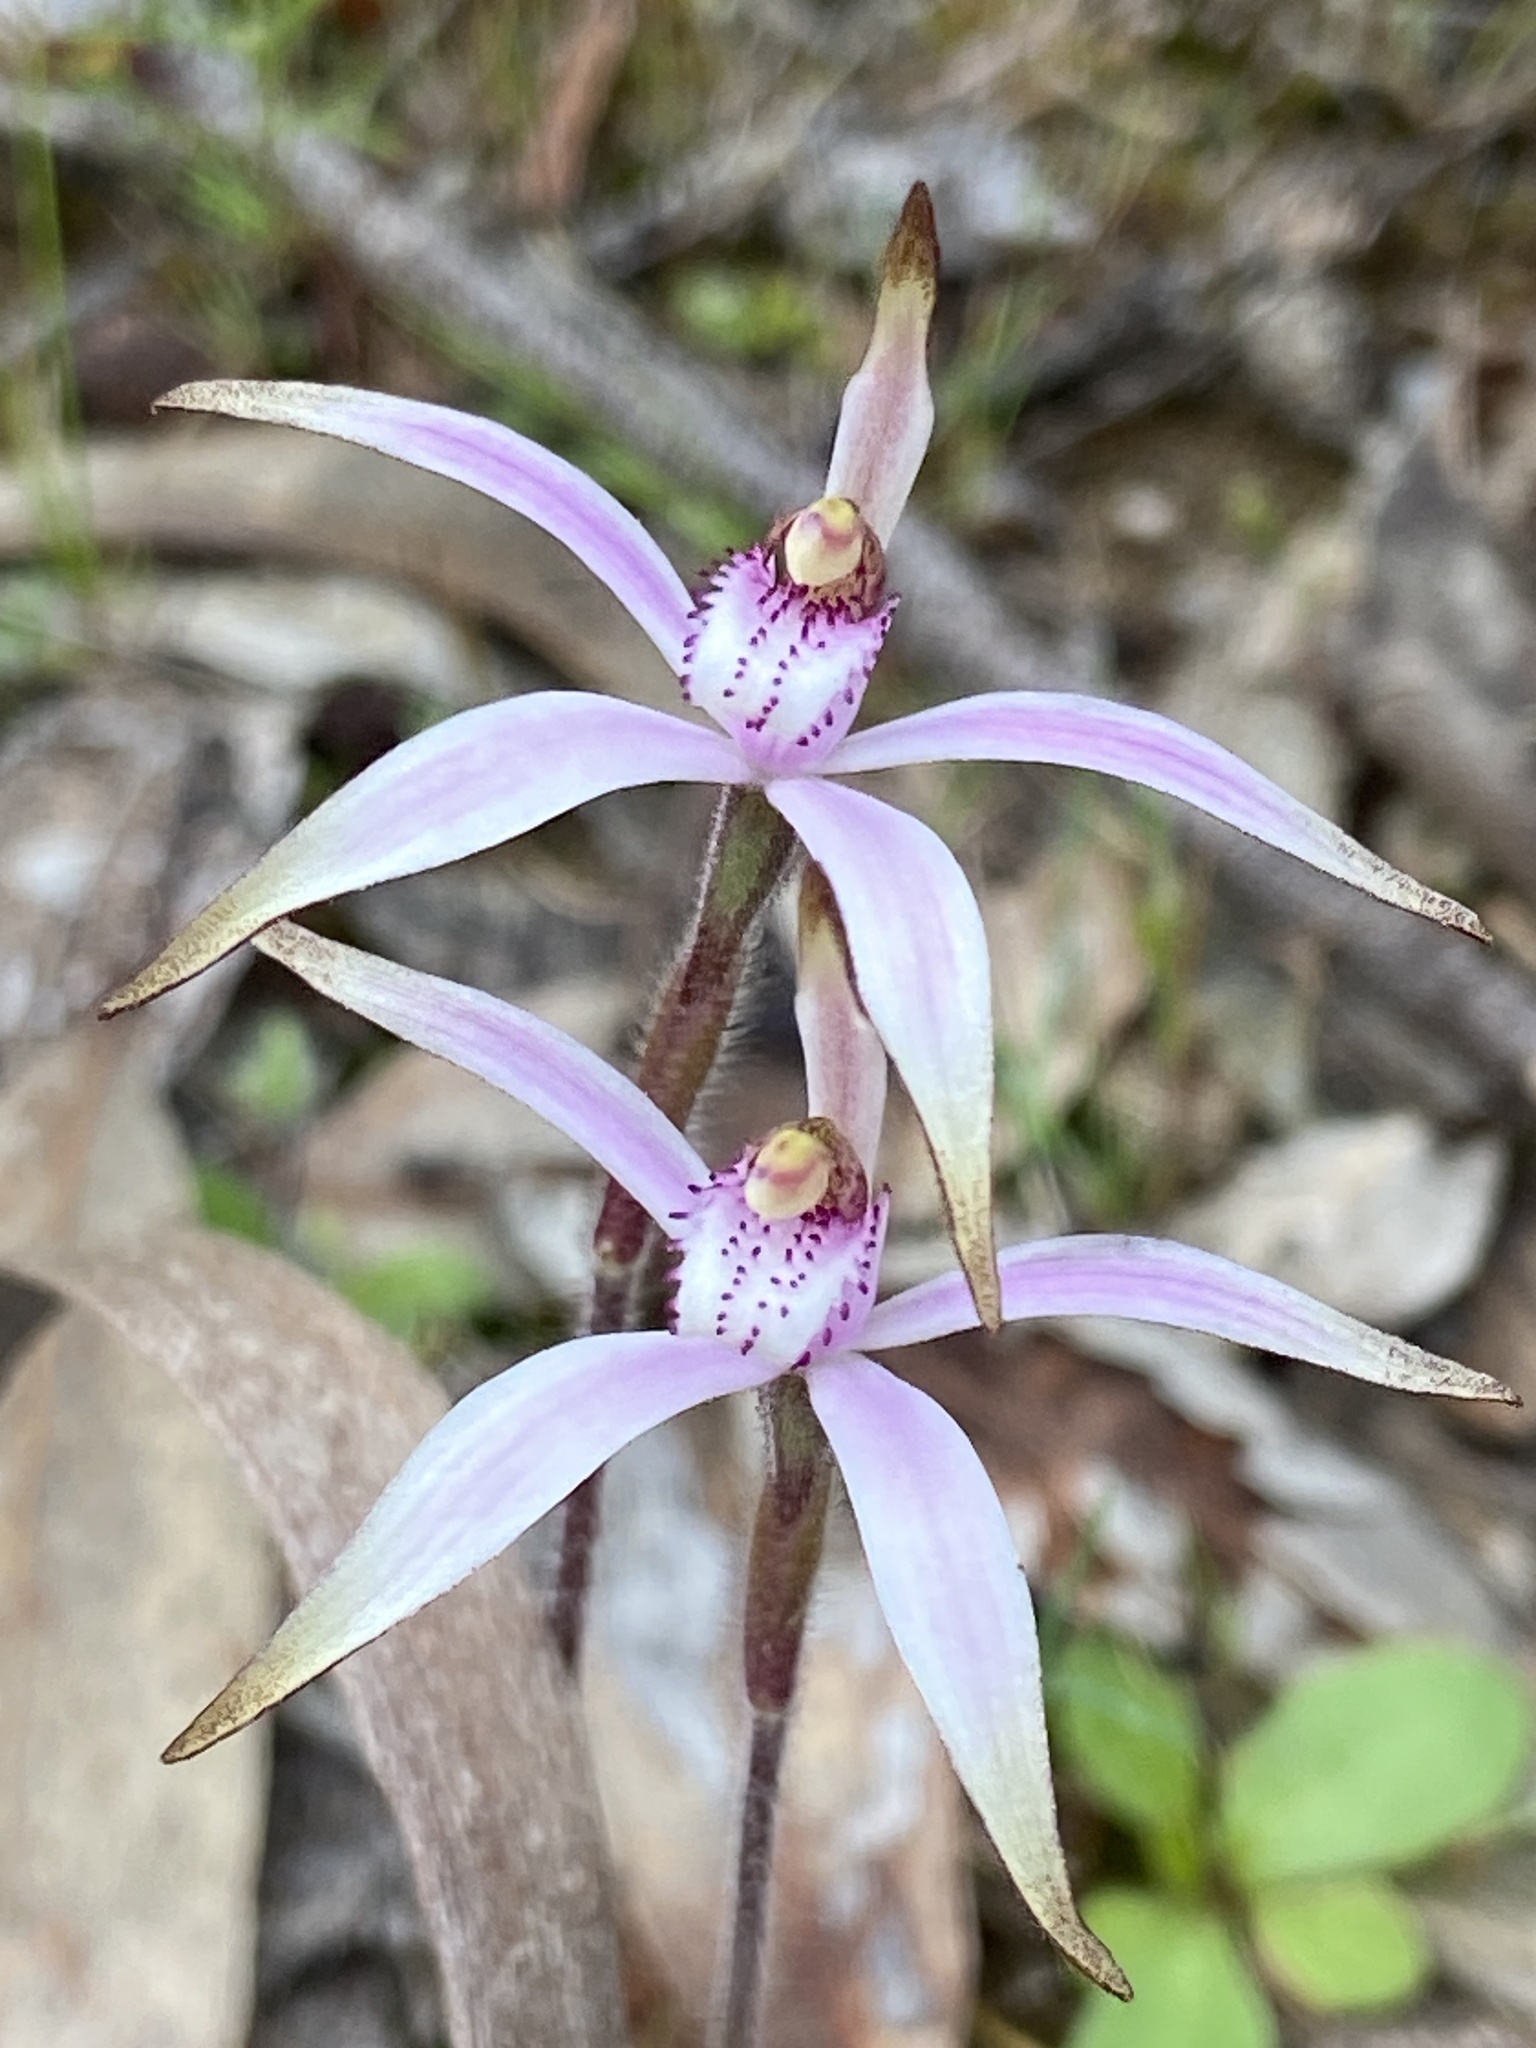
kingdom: Plantae
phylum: Tracheophyta
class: Liliopsida
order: Asparagales
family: Orchidaceae
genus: Caladenia
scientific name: Caladenia hirta
